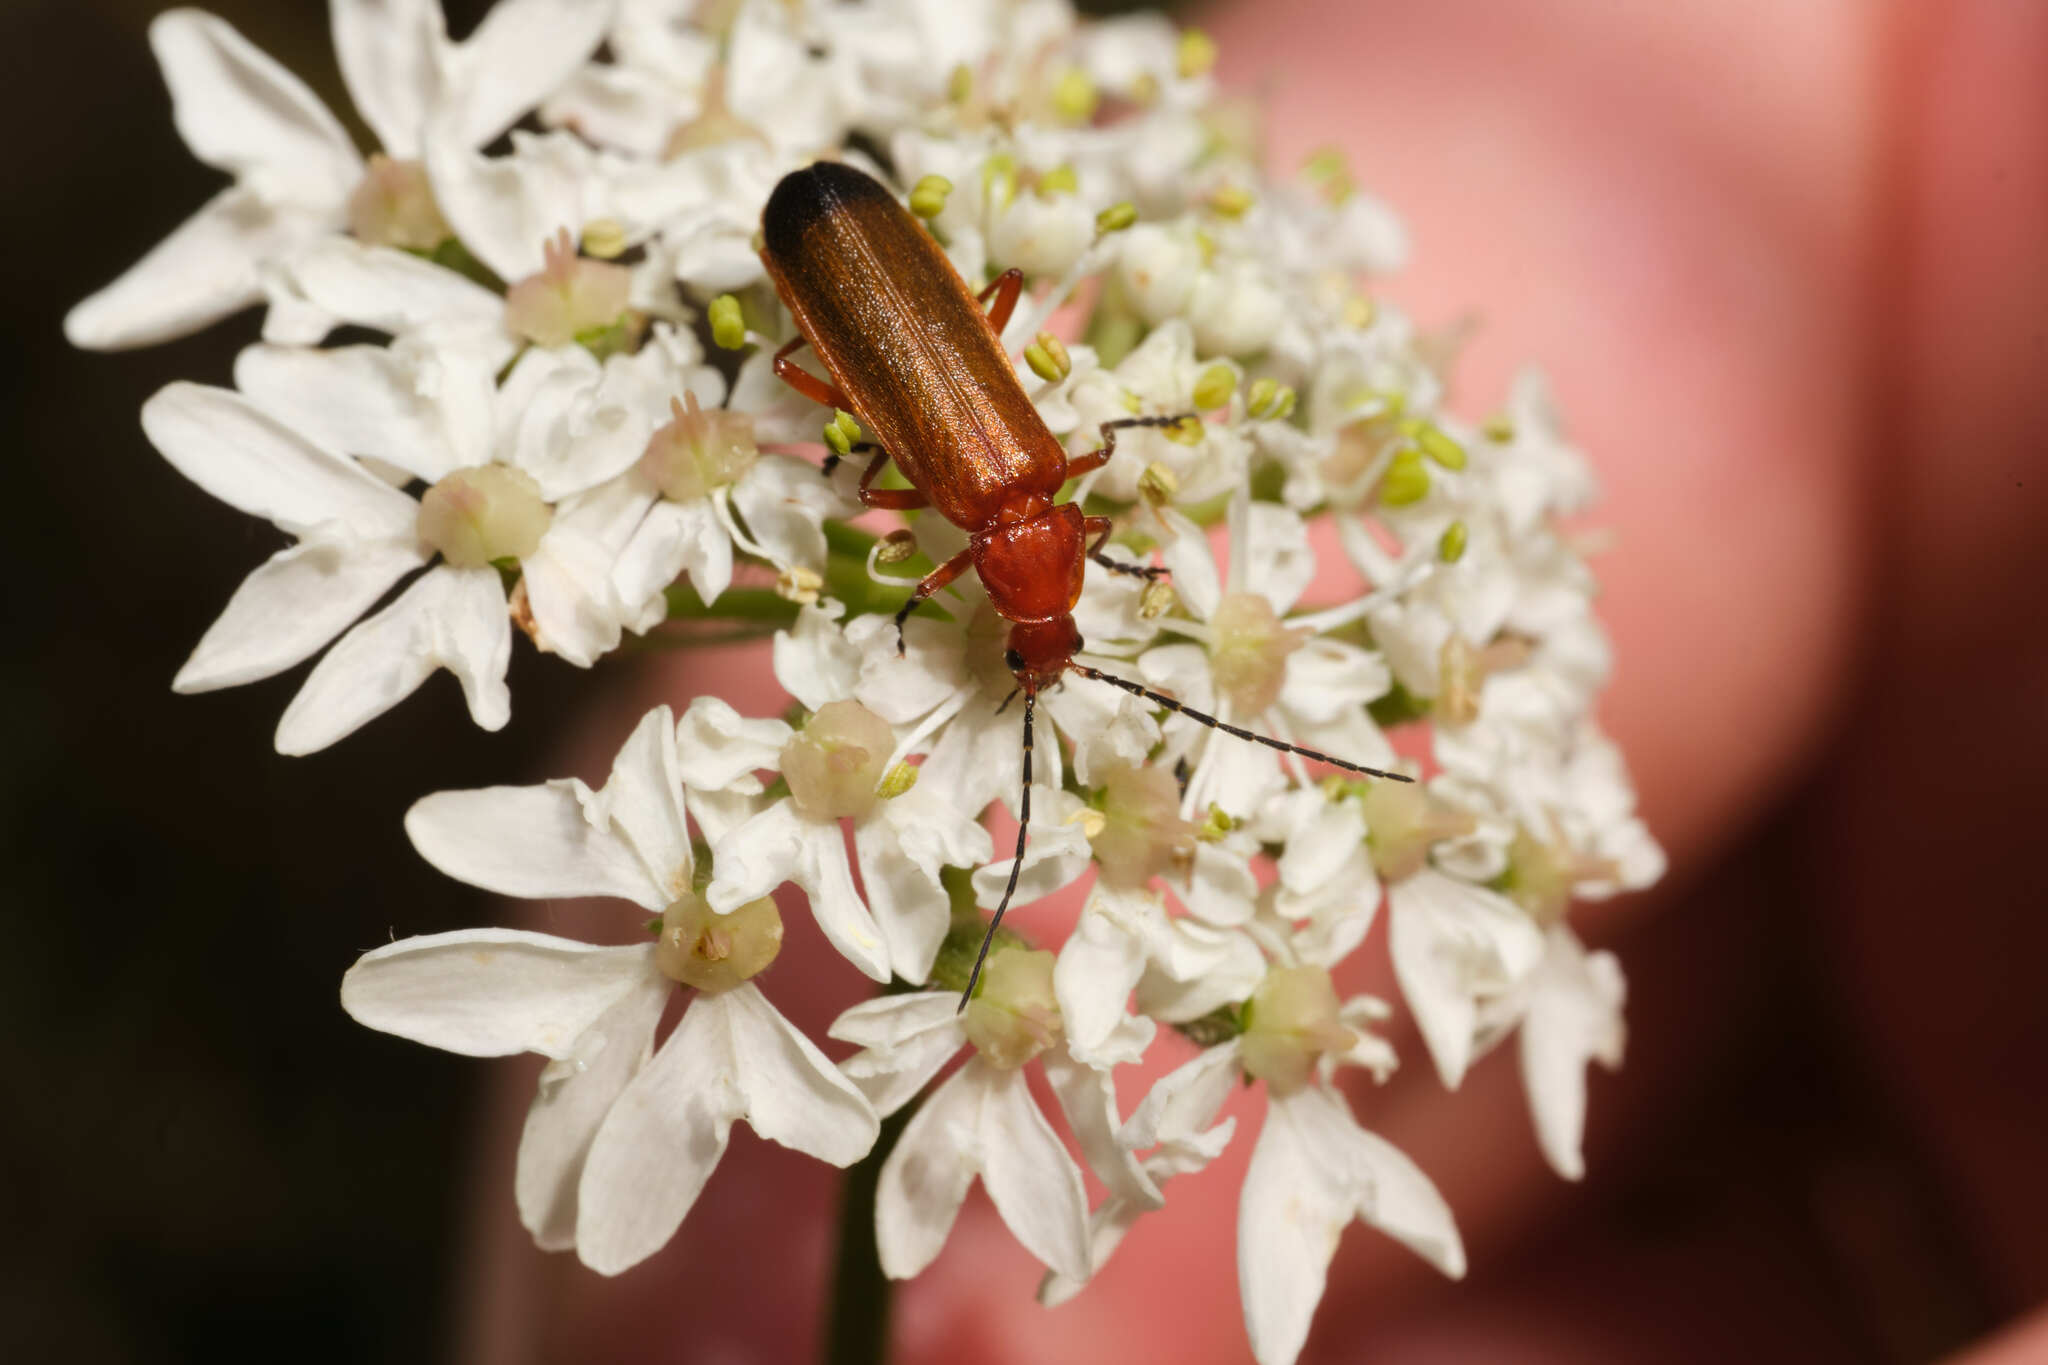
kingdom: Animalia
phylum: Arthropoda
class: Insecta
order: Coleoptera
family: Cantharidae
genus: Rhagonycha
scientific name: Rhagonycha fulva
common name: Common red soldier beetle
